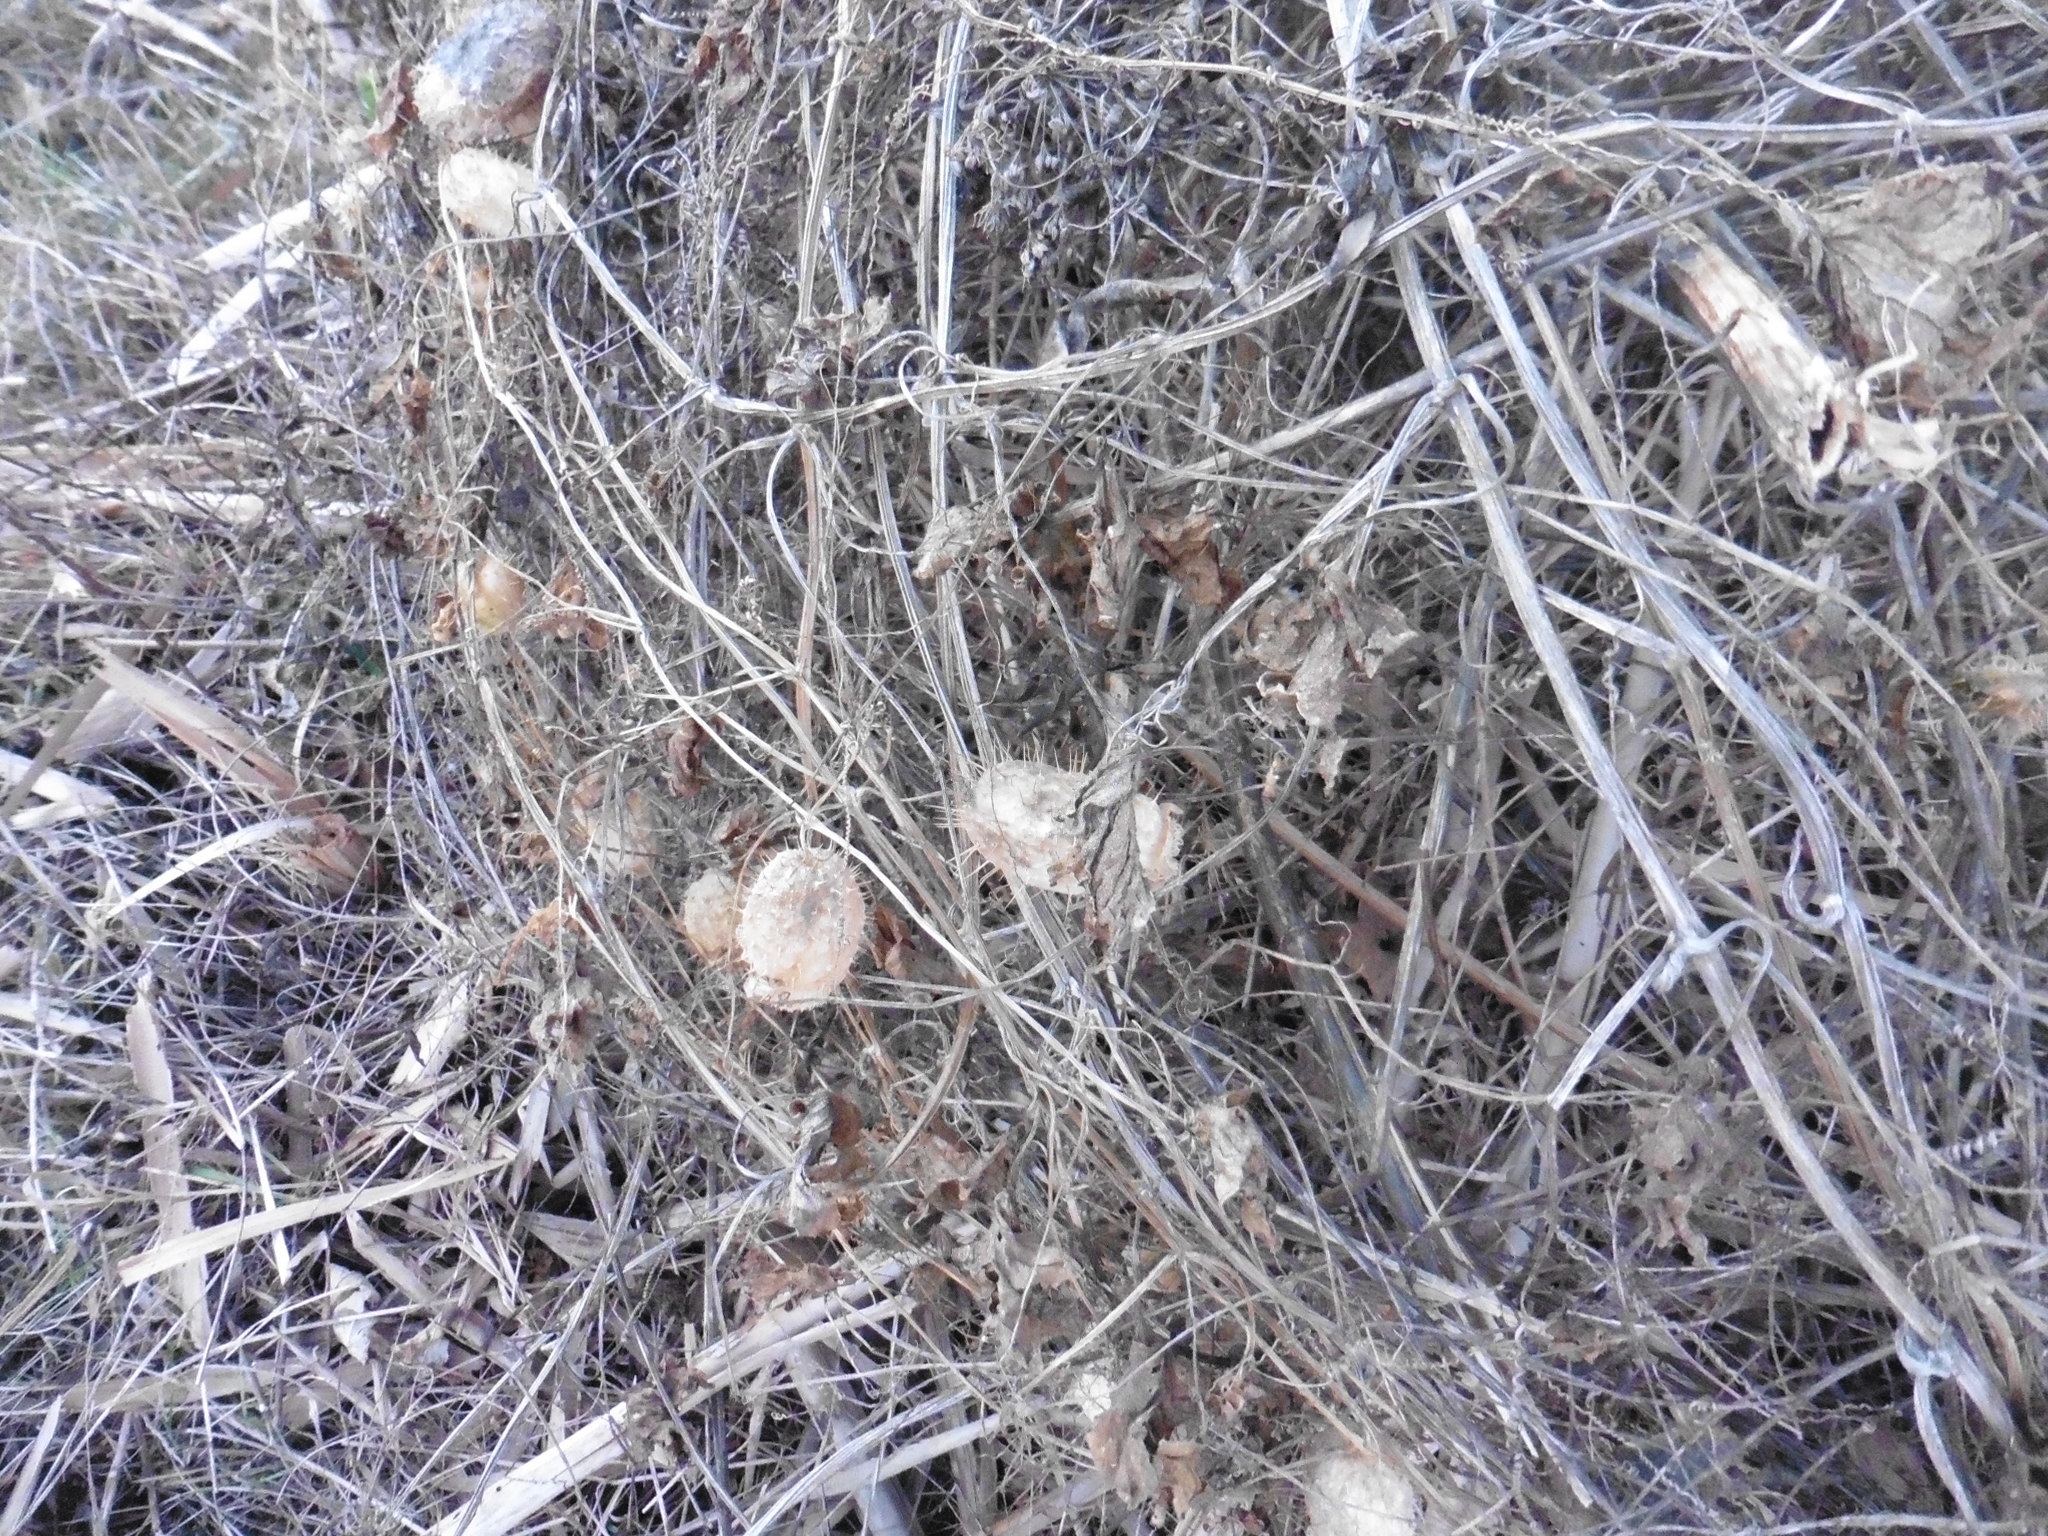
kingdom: Plantae
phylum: Tracheophyta
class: Magnoliopsida
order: Cucurbitales
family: Cucurbitaceae
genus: Echinocystis
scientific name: Echinocystis lobata
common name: Wild cucumber
